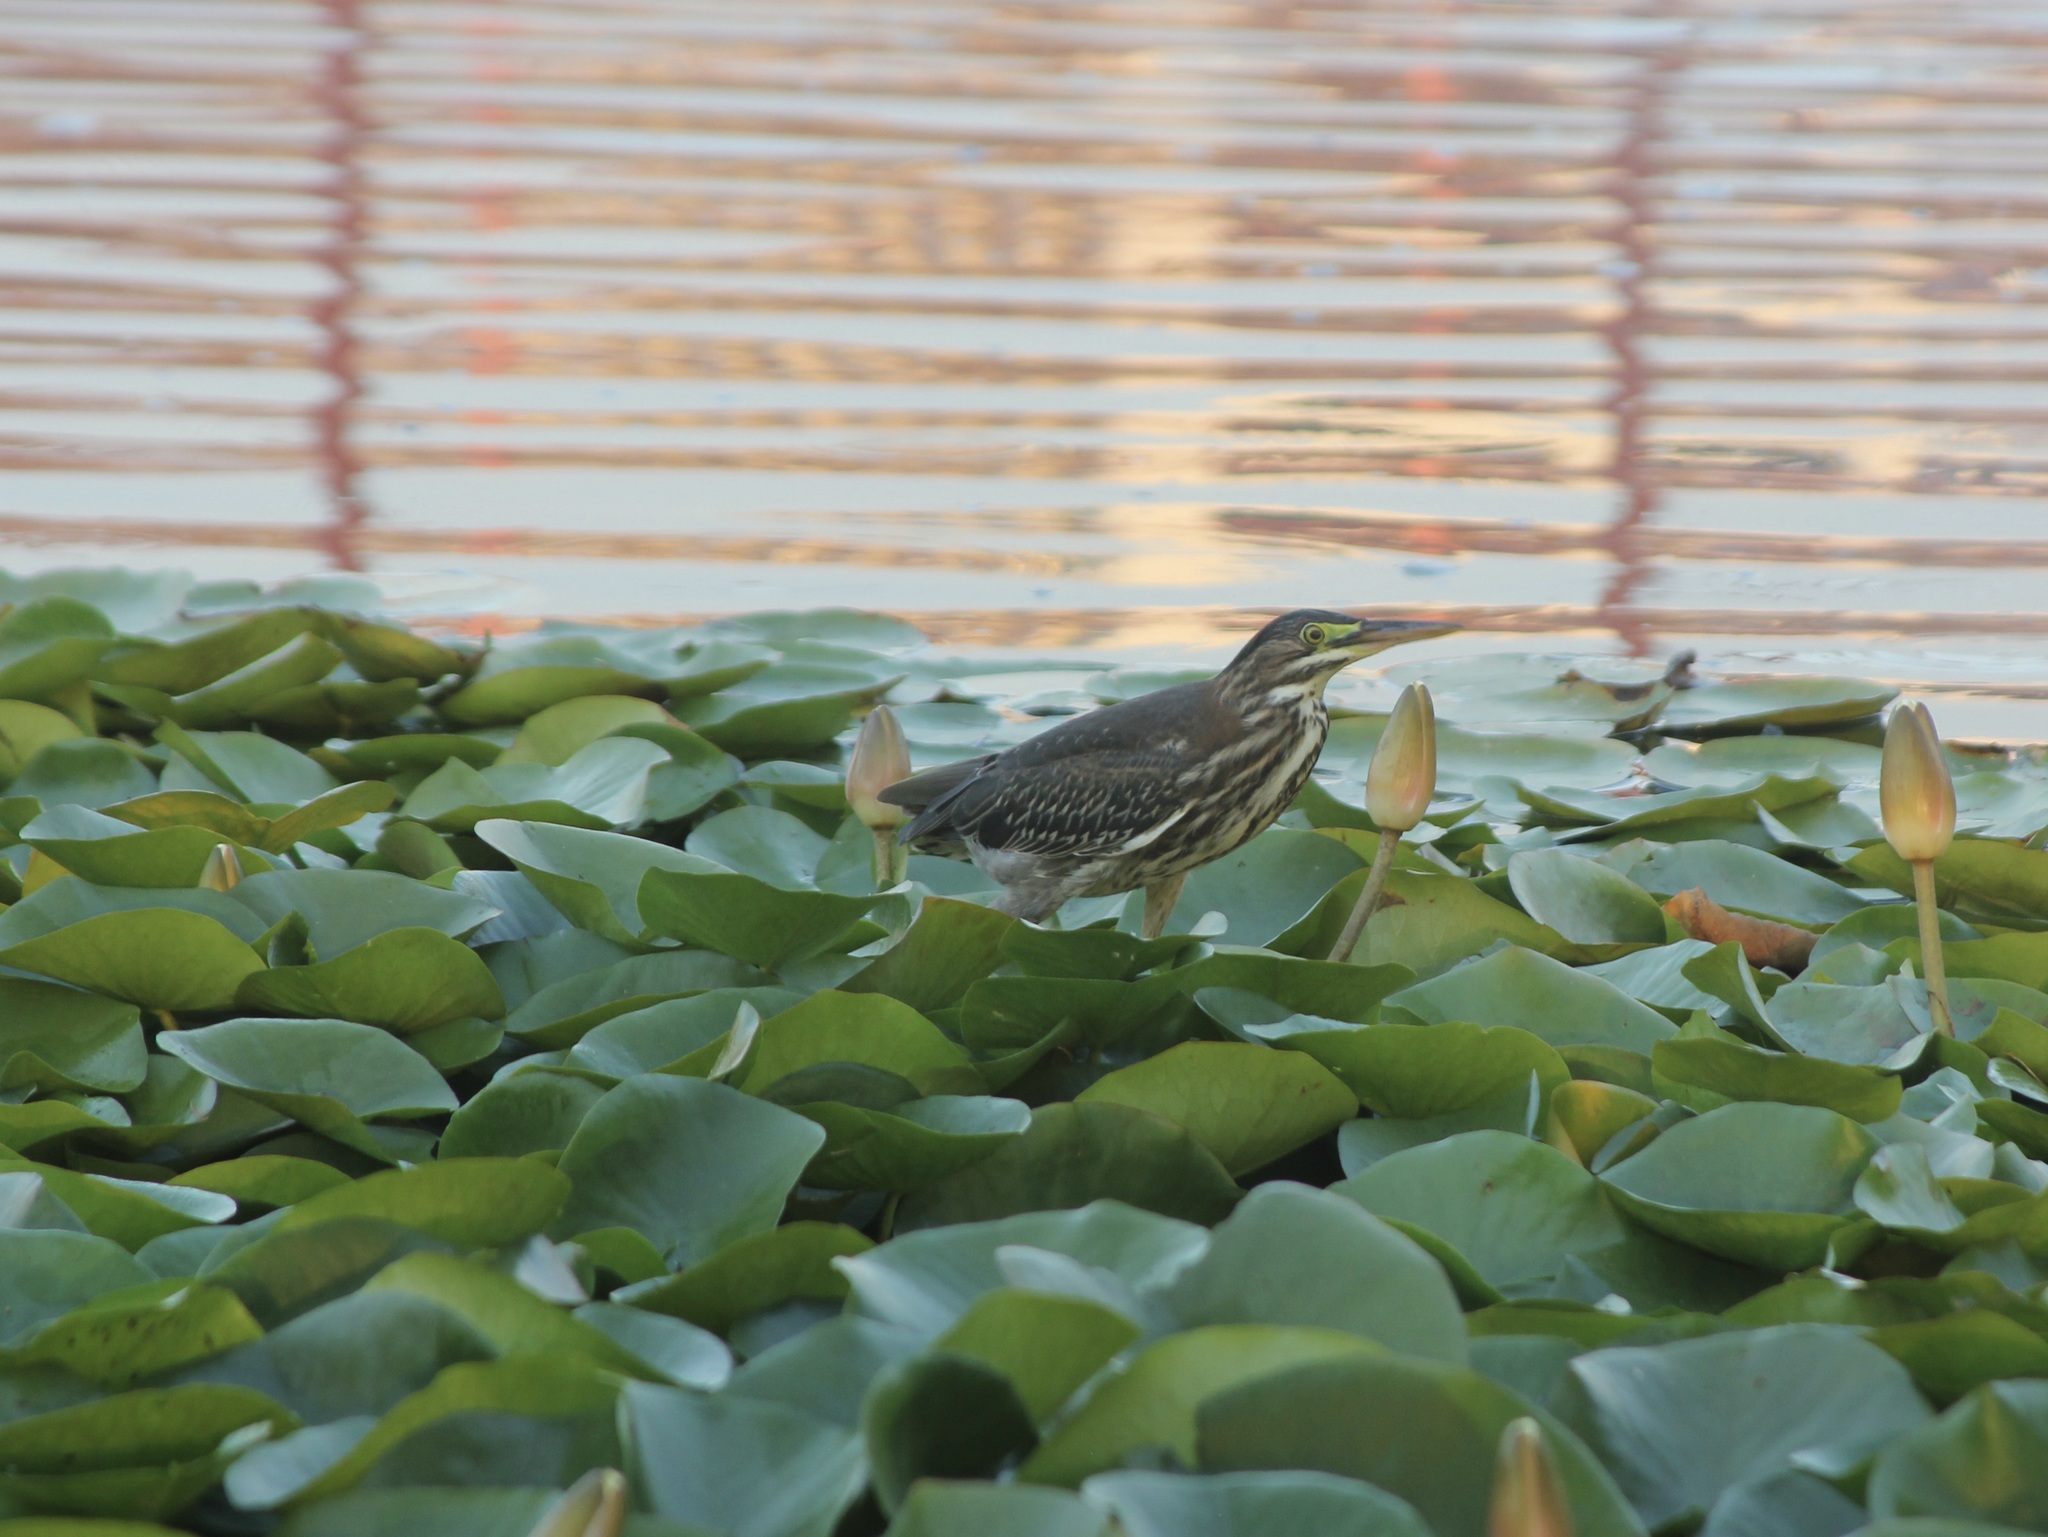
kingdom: Animalia
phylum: Chordata
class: Aves
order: Pelecaniformes
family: Ardeidae
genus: Butorides
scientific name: Butorides virescens
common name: Green heron
